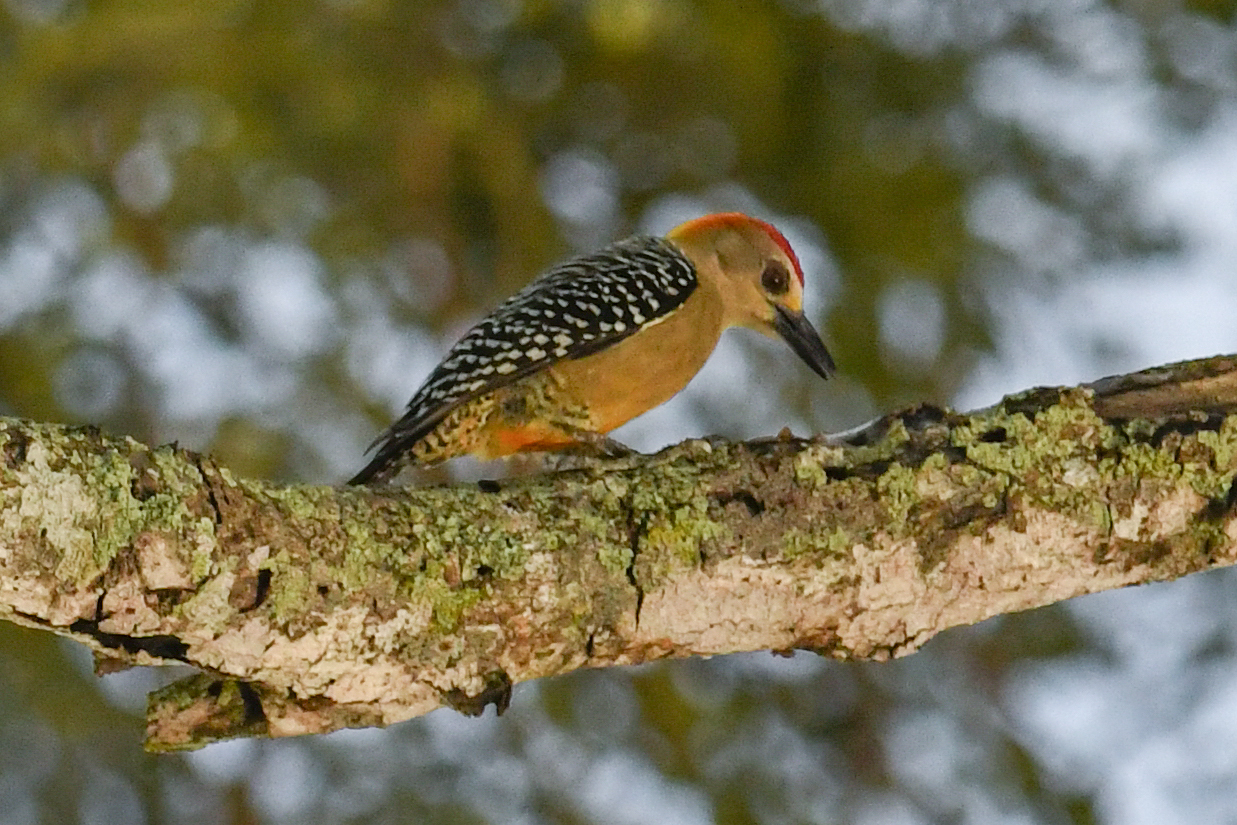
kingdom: Animalia
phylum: Chordata
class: Aves
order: Piciformes
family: Picidae
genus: Melanerpes
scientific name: Melanerpes hoffmannii
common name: Hoffmann's woodpecker
